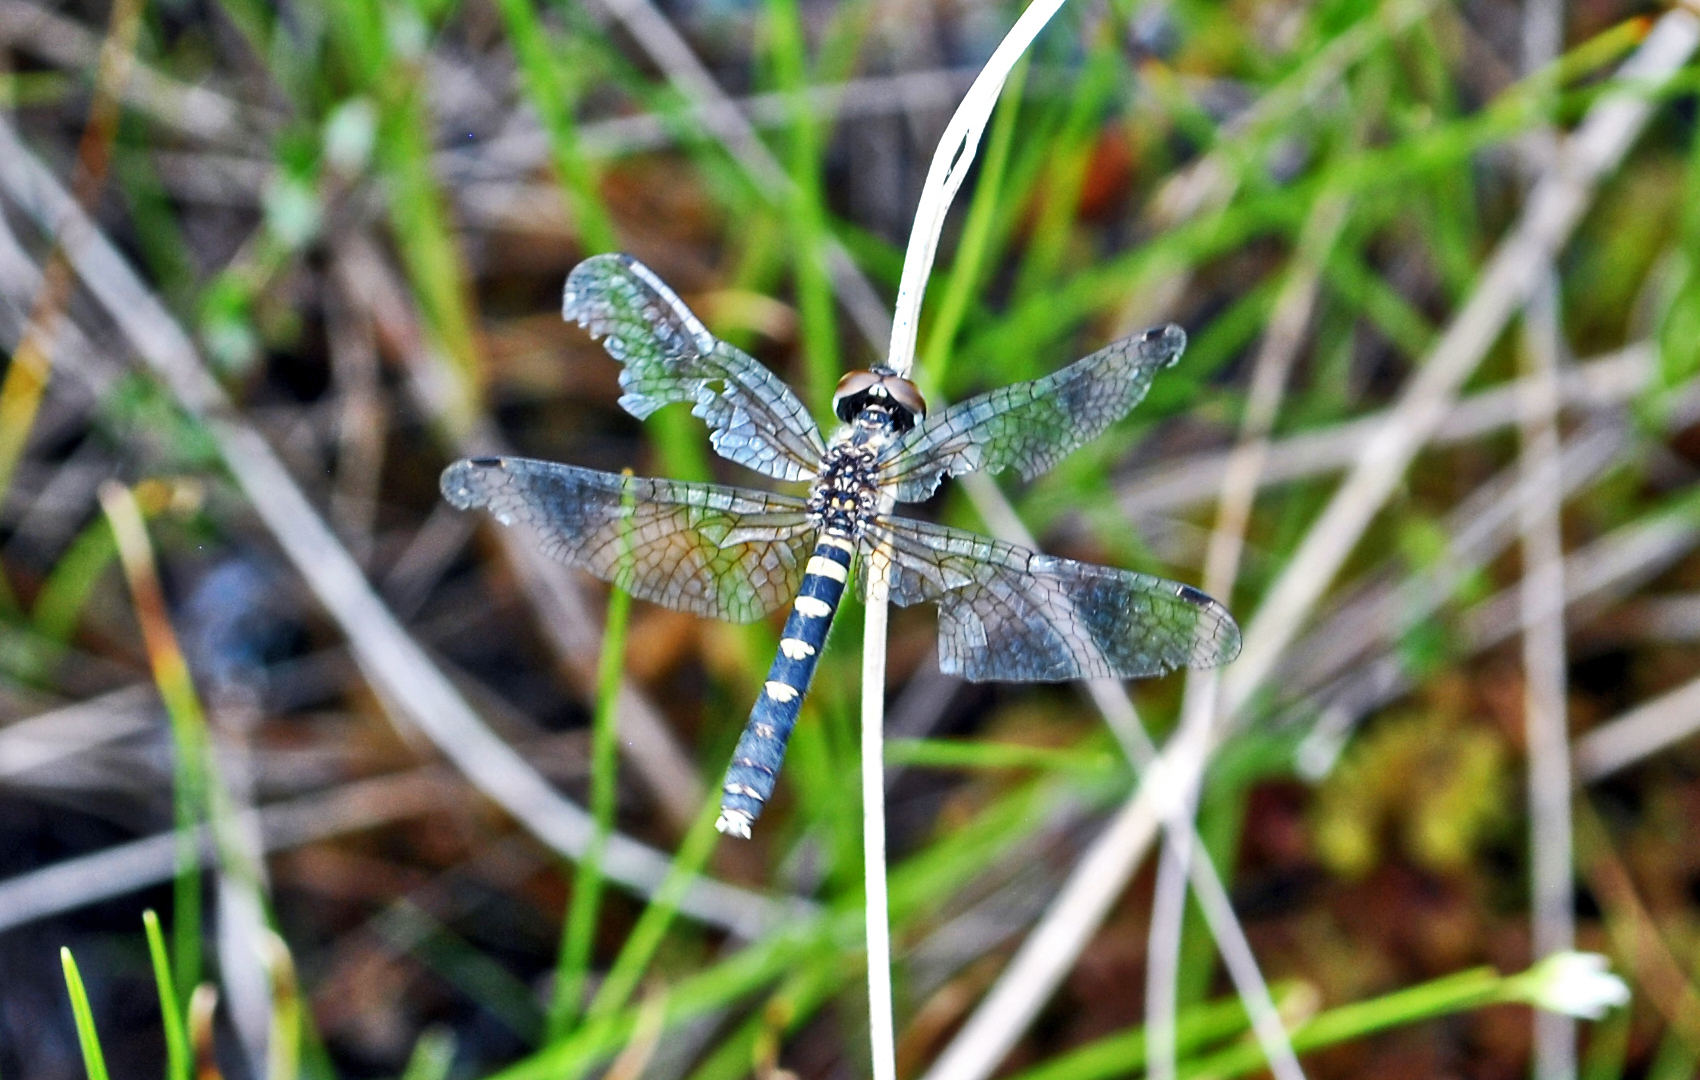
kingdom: Animalia
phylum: Arthropoda
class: Insecta
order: Odonata
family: Libellulidae
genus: Nannothemis
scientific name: Nannothemis bella
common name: Elfin skimmer
